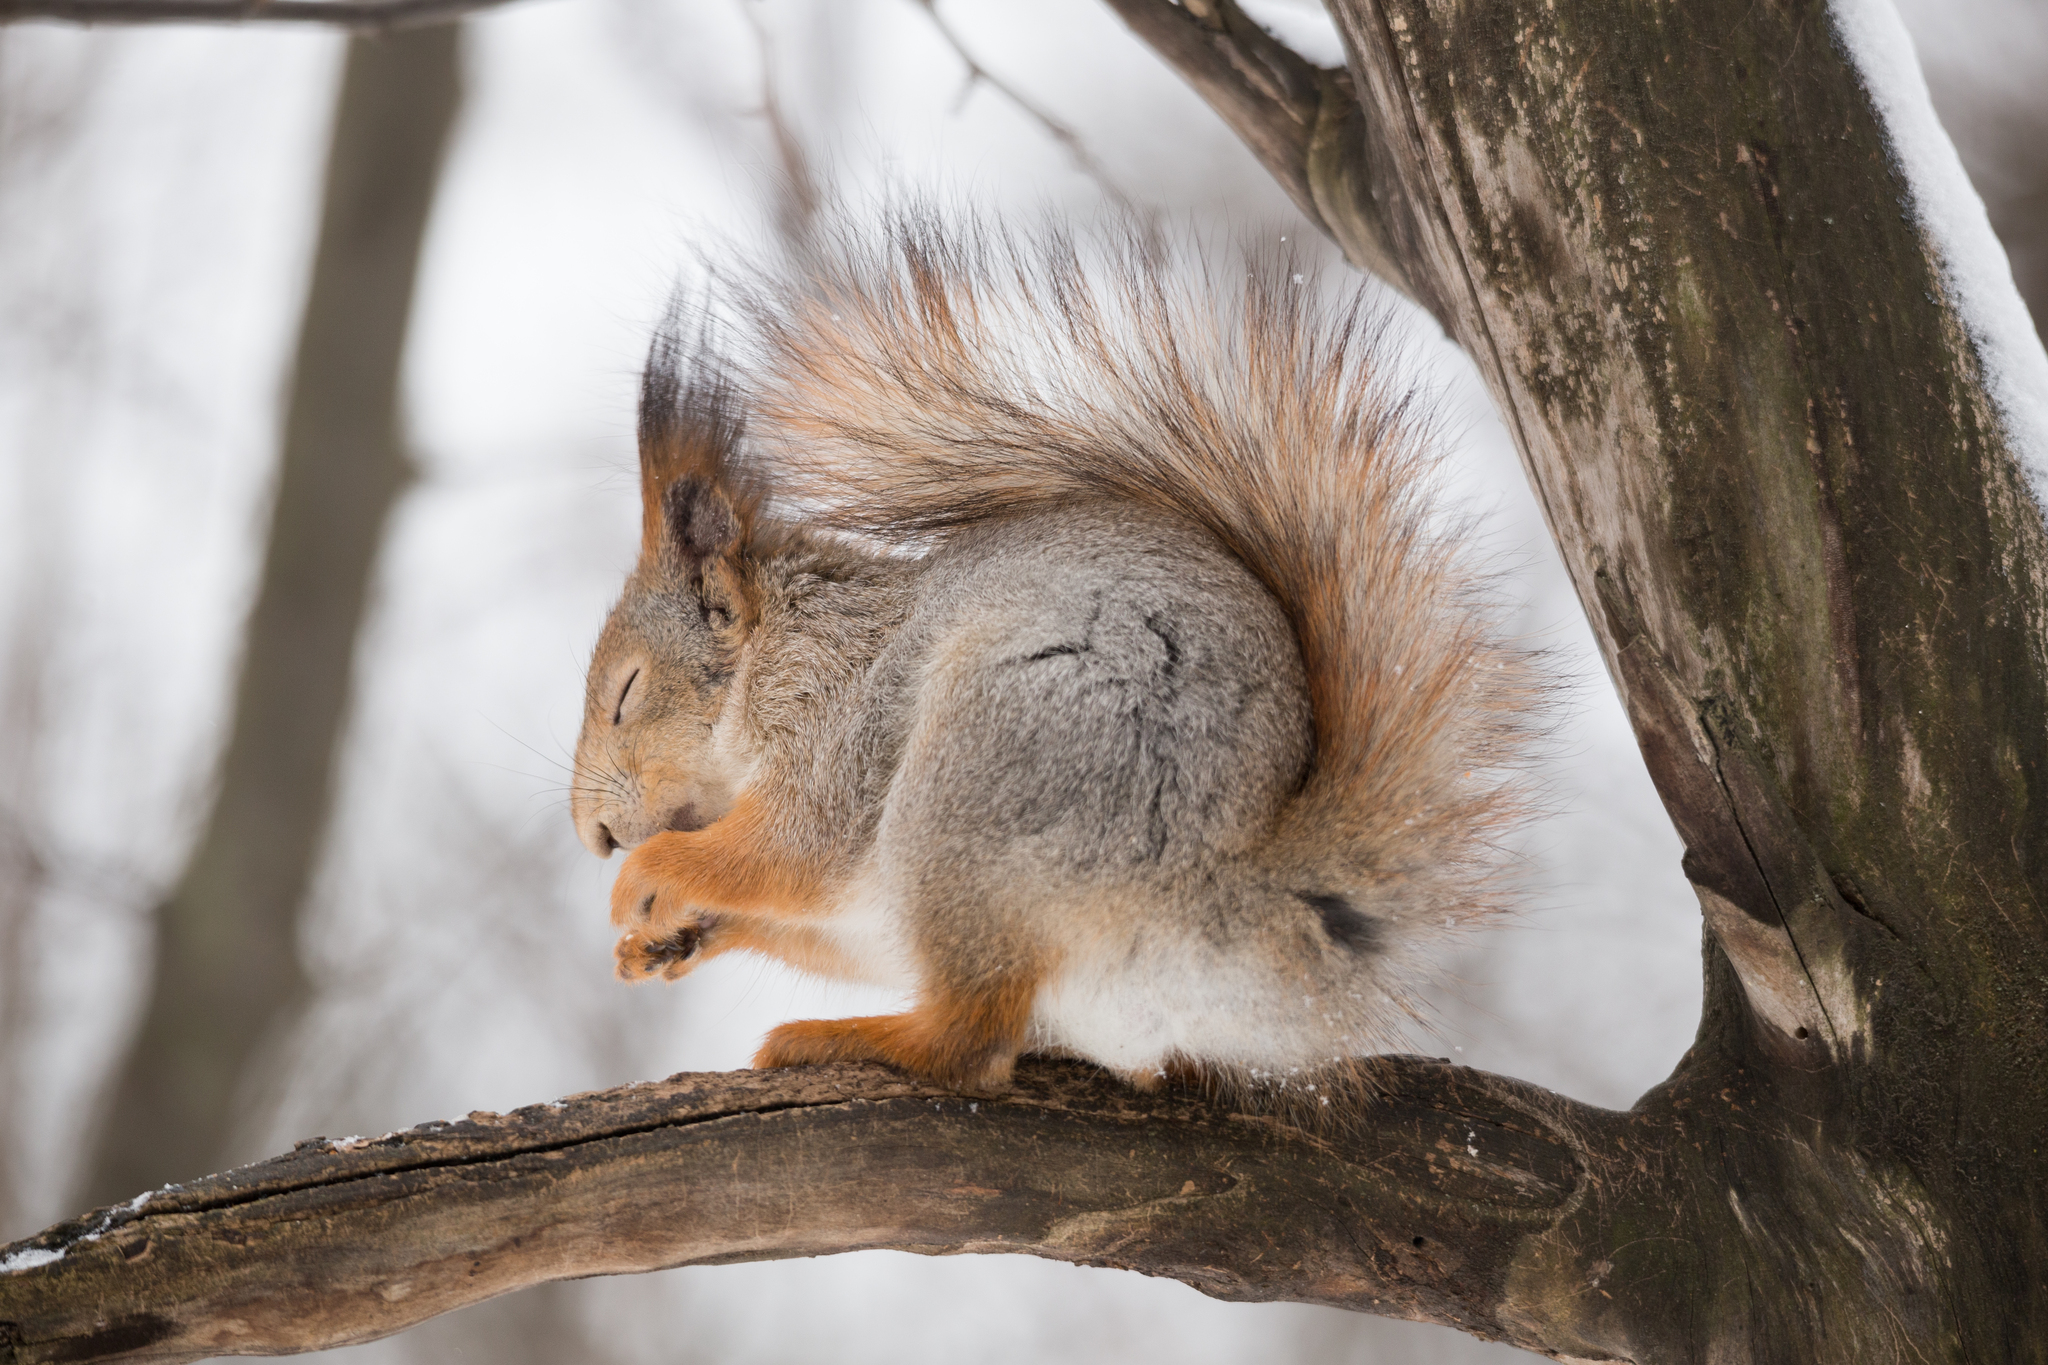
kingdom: Animalia
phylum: Chordata
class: Mammalia
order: Rodentia
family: Sciuridae
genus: Sciurus
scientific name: Sciurus vulgaris
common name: Eurasian red squirrel
